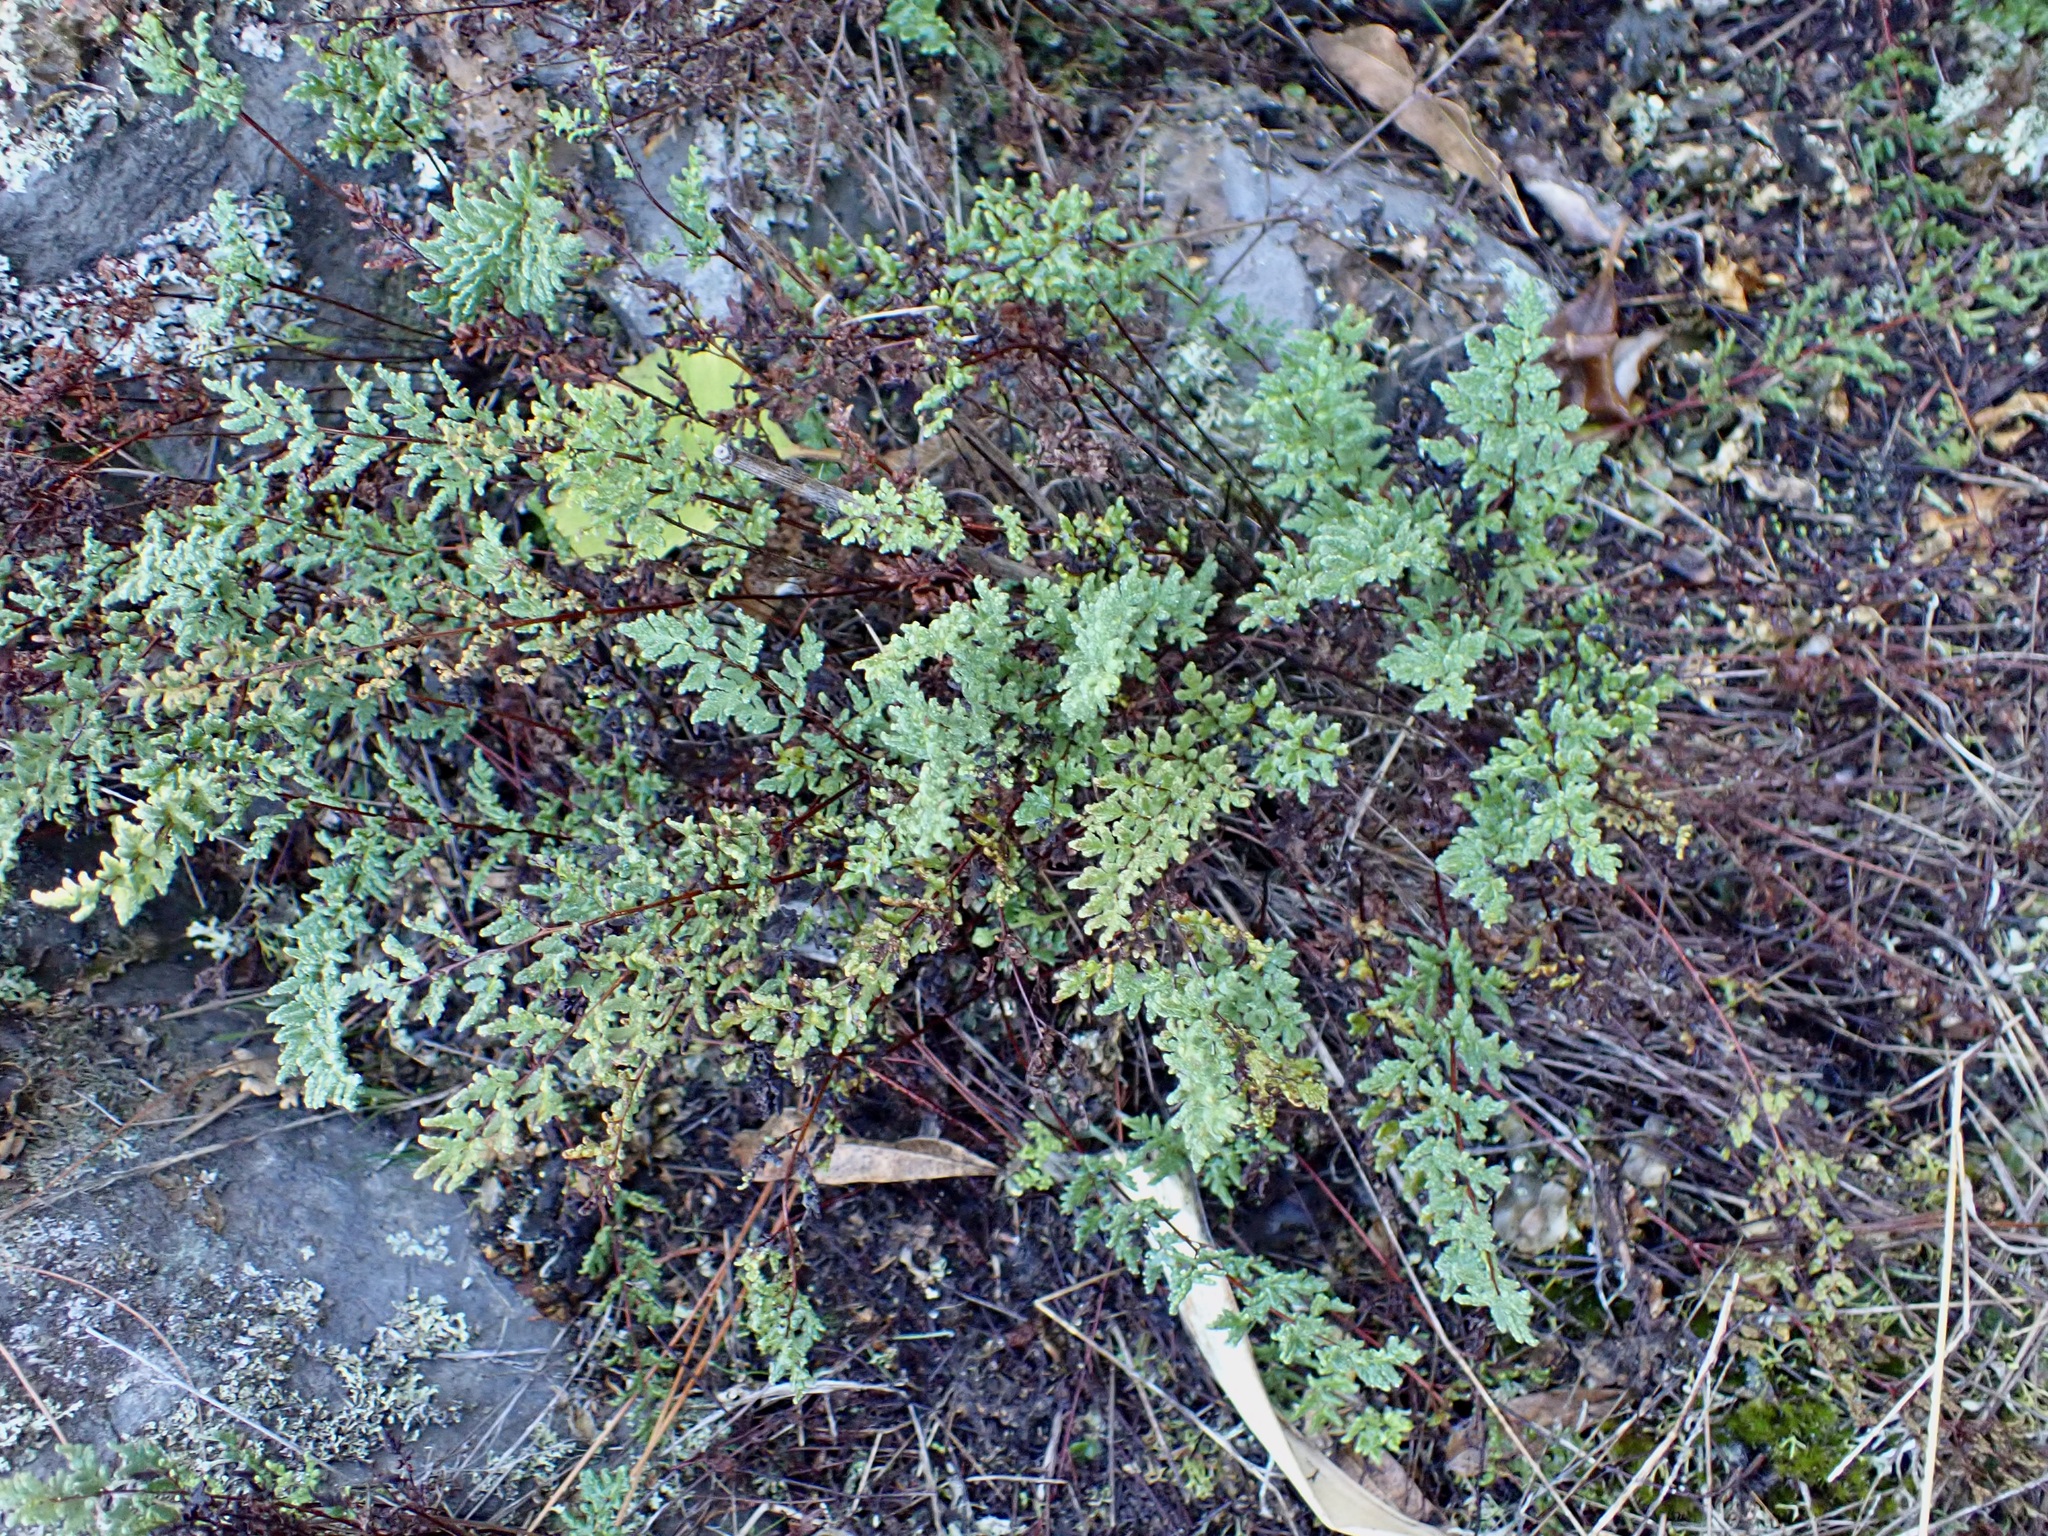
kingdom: Plantae
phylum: Tracheophyta
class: Polypodiopsida
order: Polypodiales
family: Pteridaceae
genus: Cheilanthes
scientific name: Cheilanthes sieberi
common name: Mulga fern
